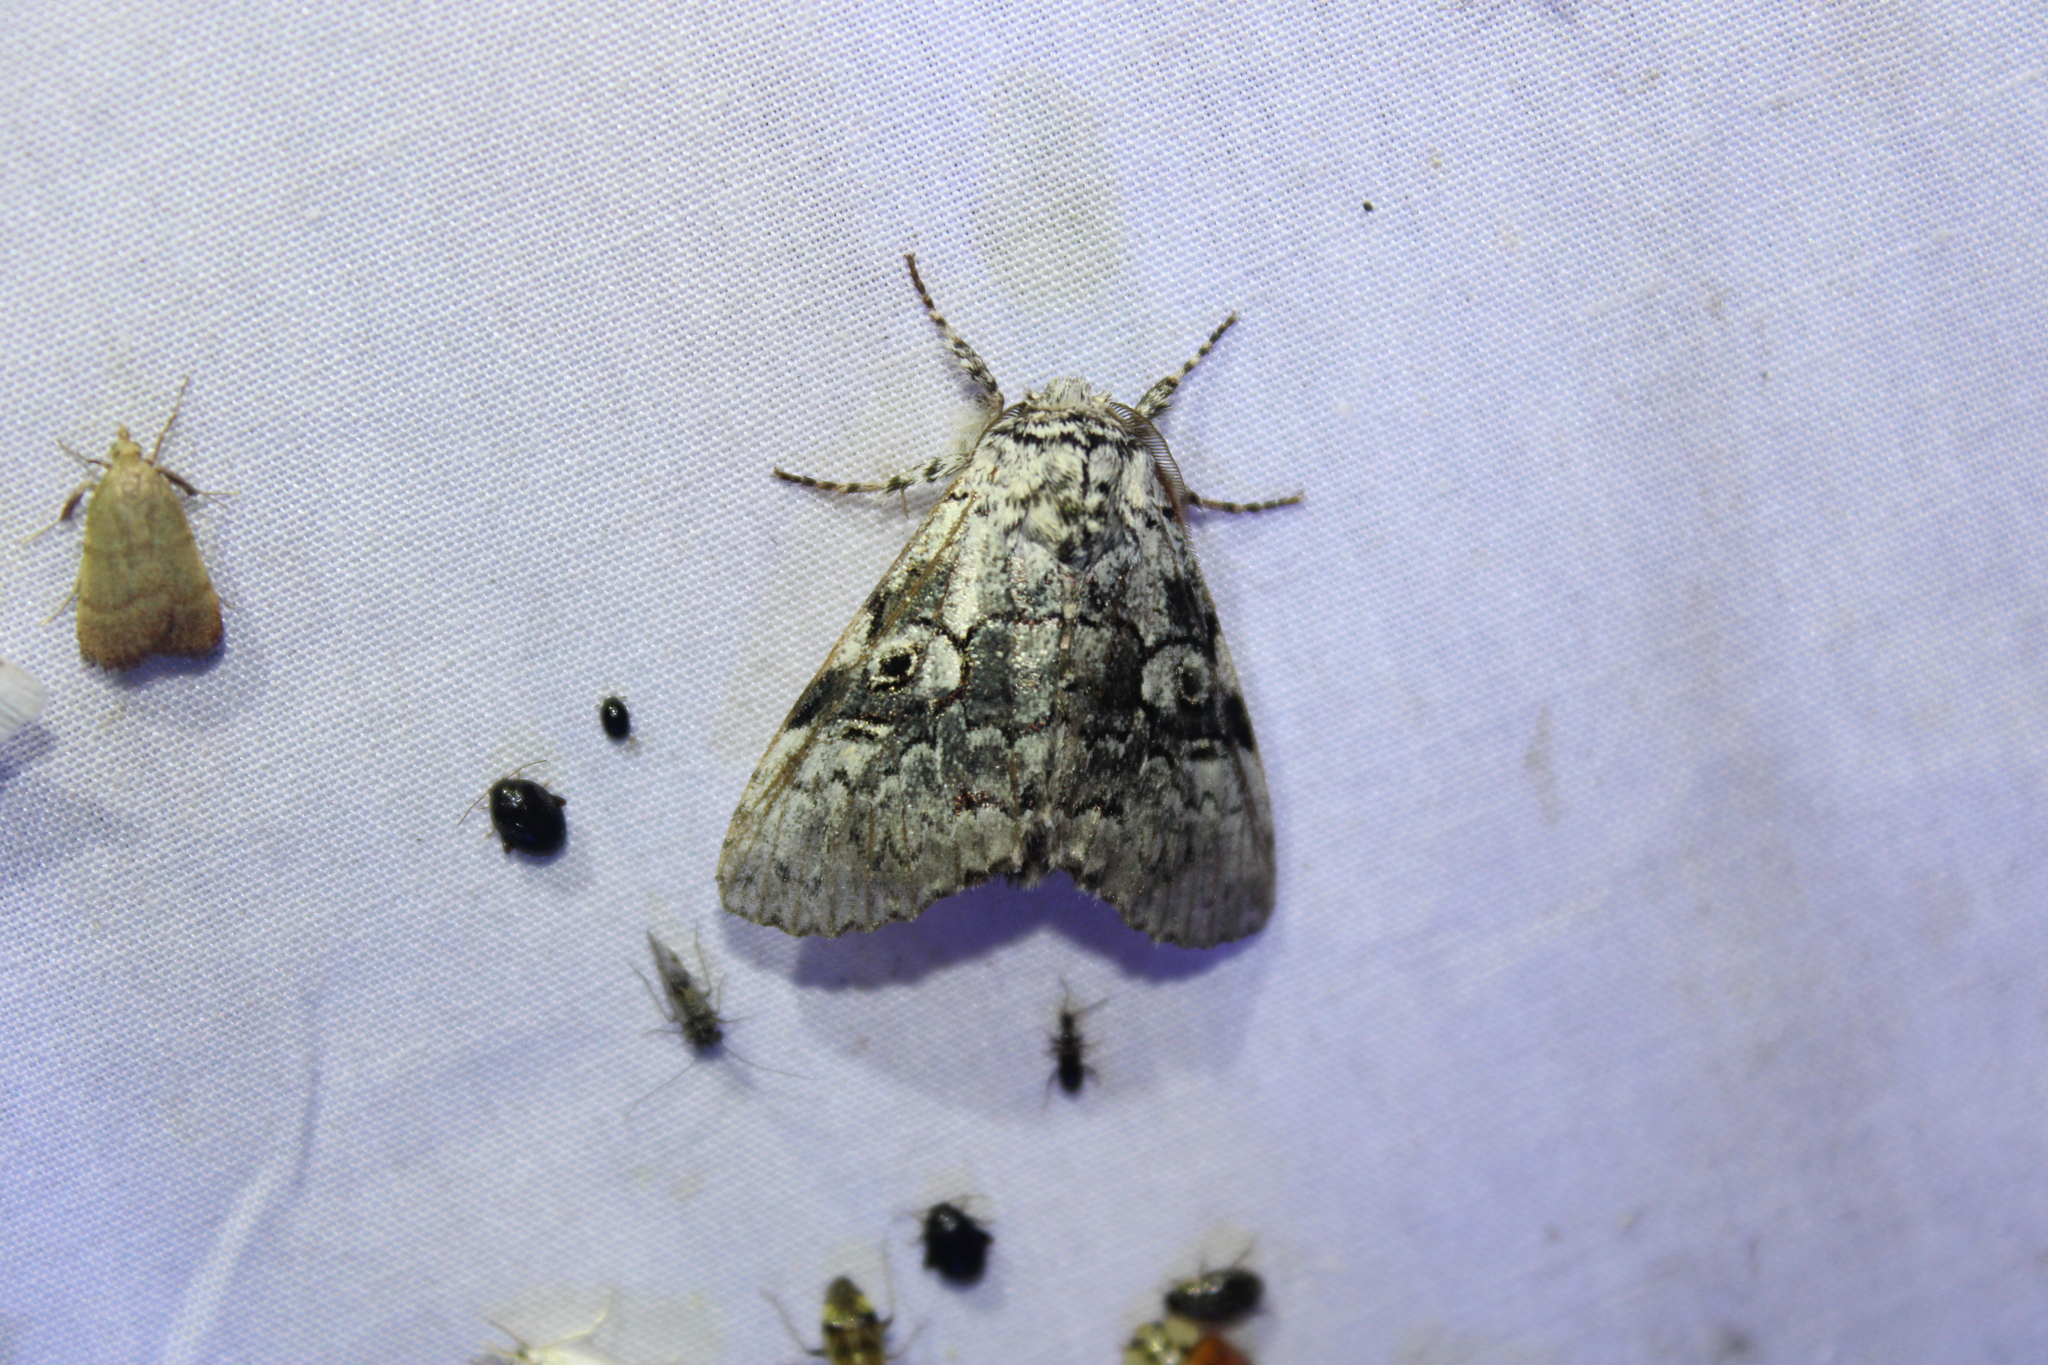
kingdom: Animalia
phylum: Arthropoda
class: Insecta
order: Lepidoptera
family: Noctuidae
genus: Charadra
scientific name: Charadra deridens
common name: Marbled tuffet
